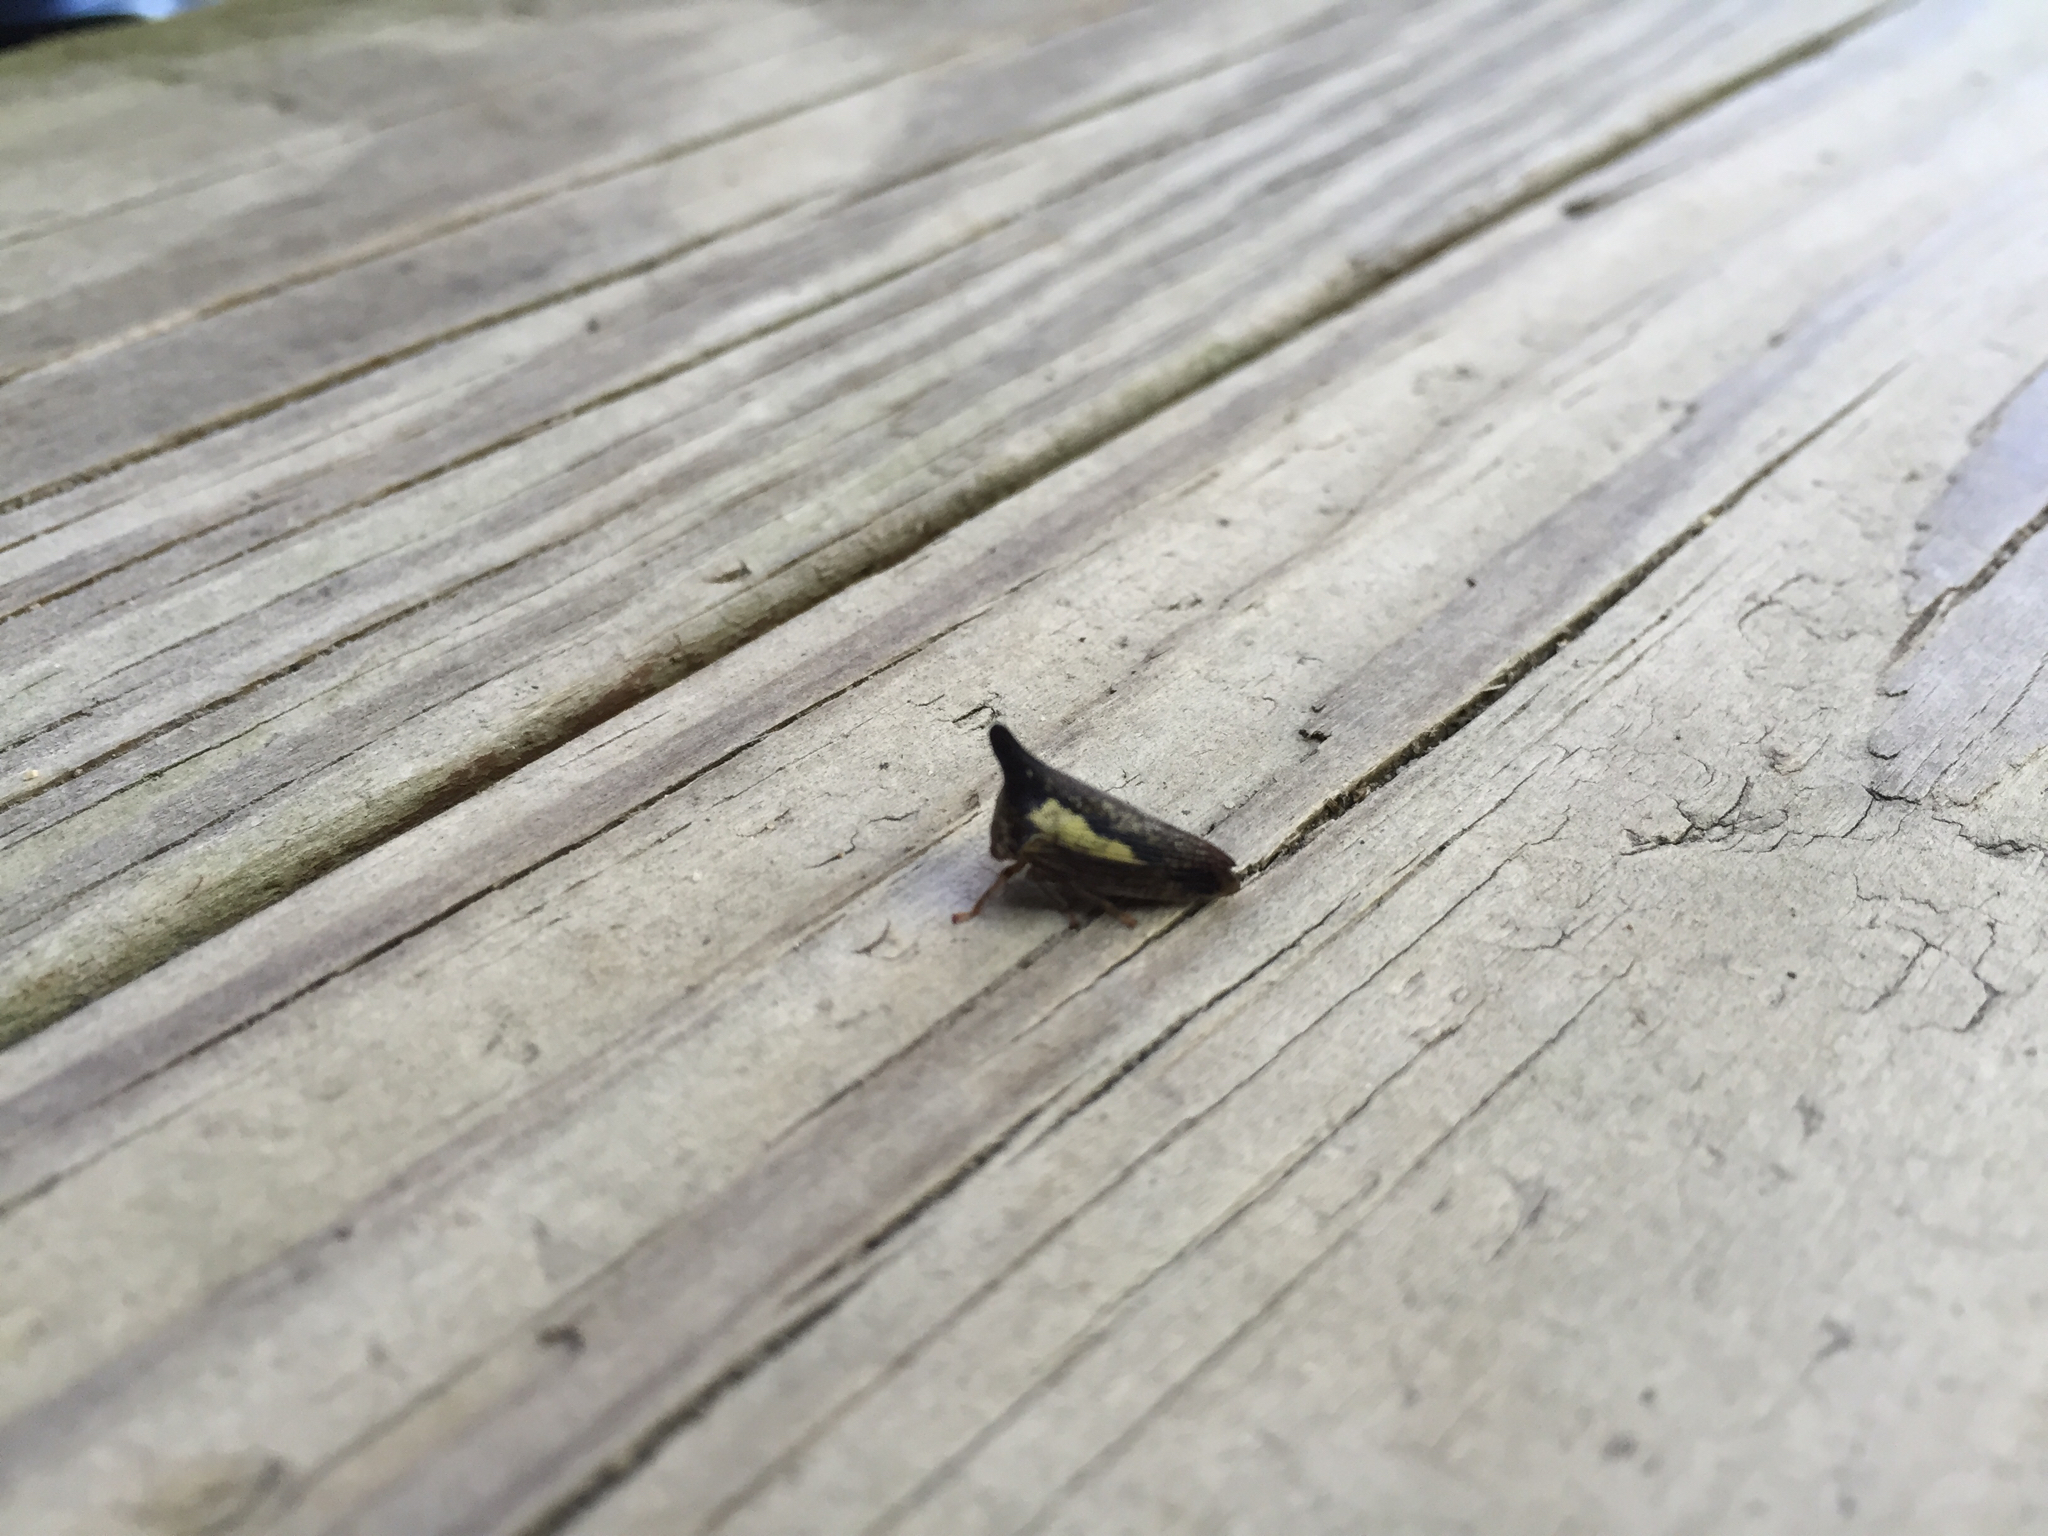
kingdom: Animalia
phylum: Arthropoda
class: Insecta
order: Hemiptera
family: Membracidae
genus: Thelia
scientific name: Thelia bimaculata
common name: Locust treehopper
